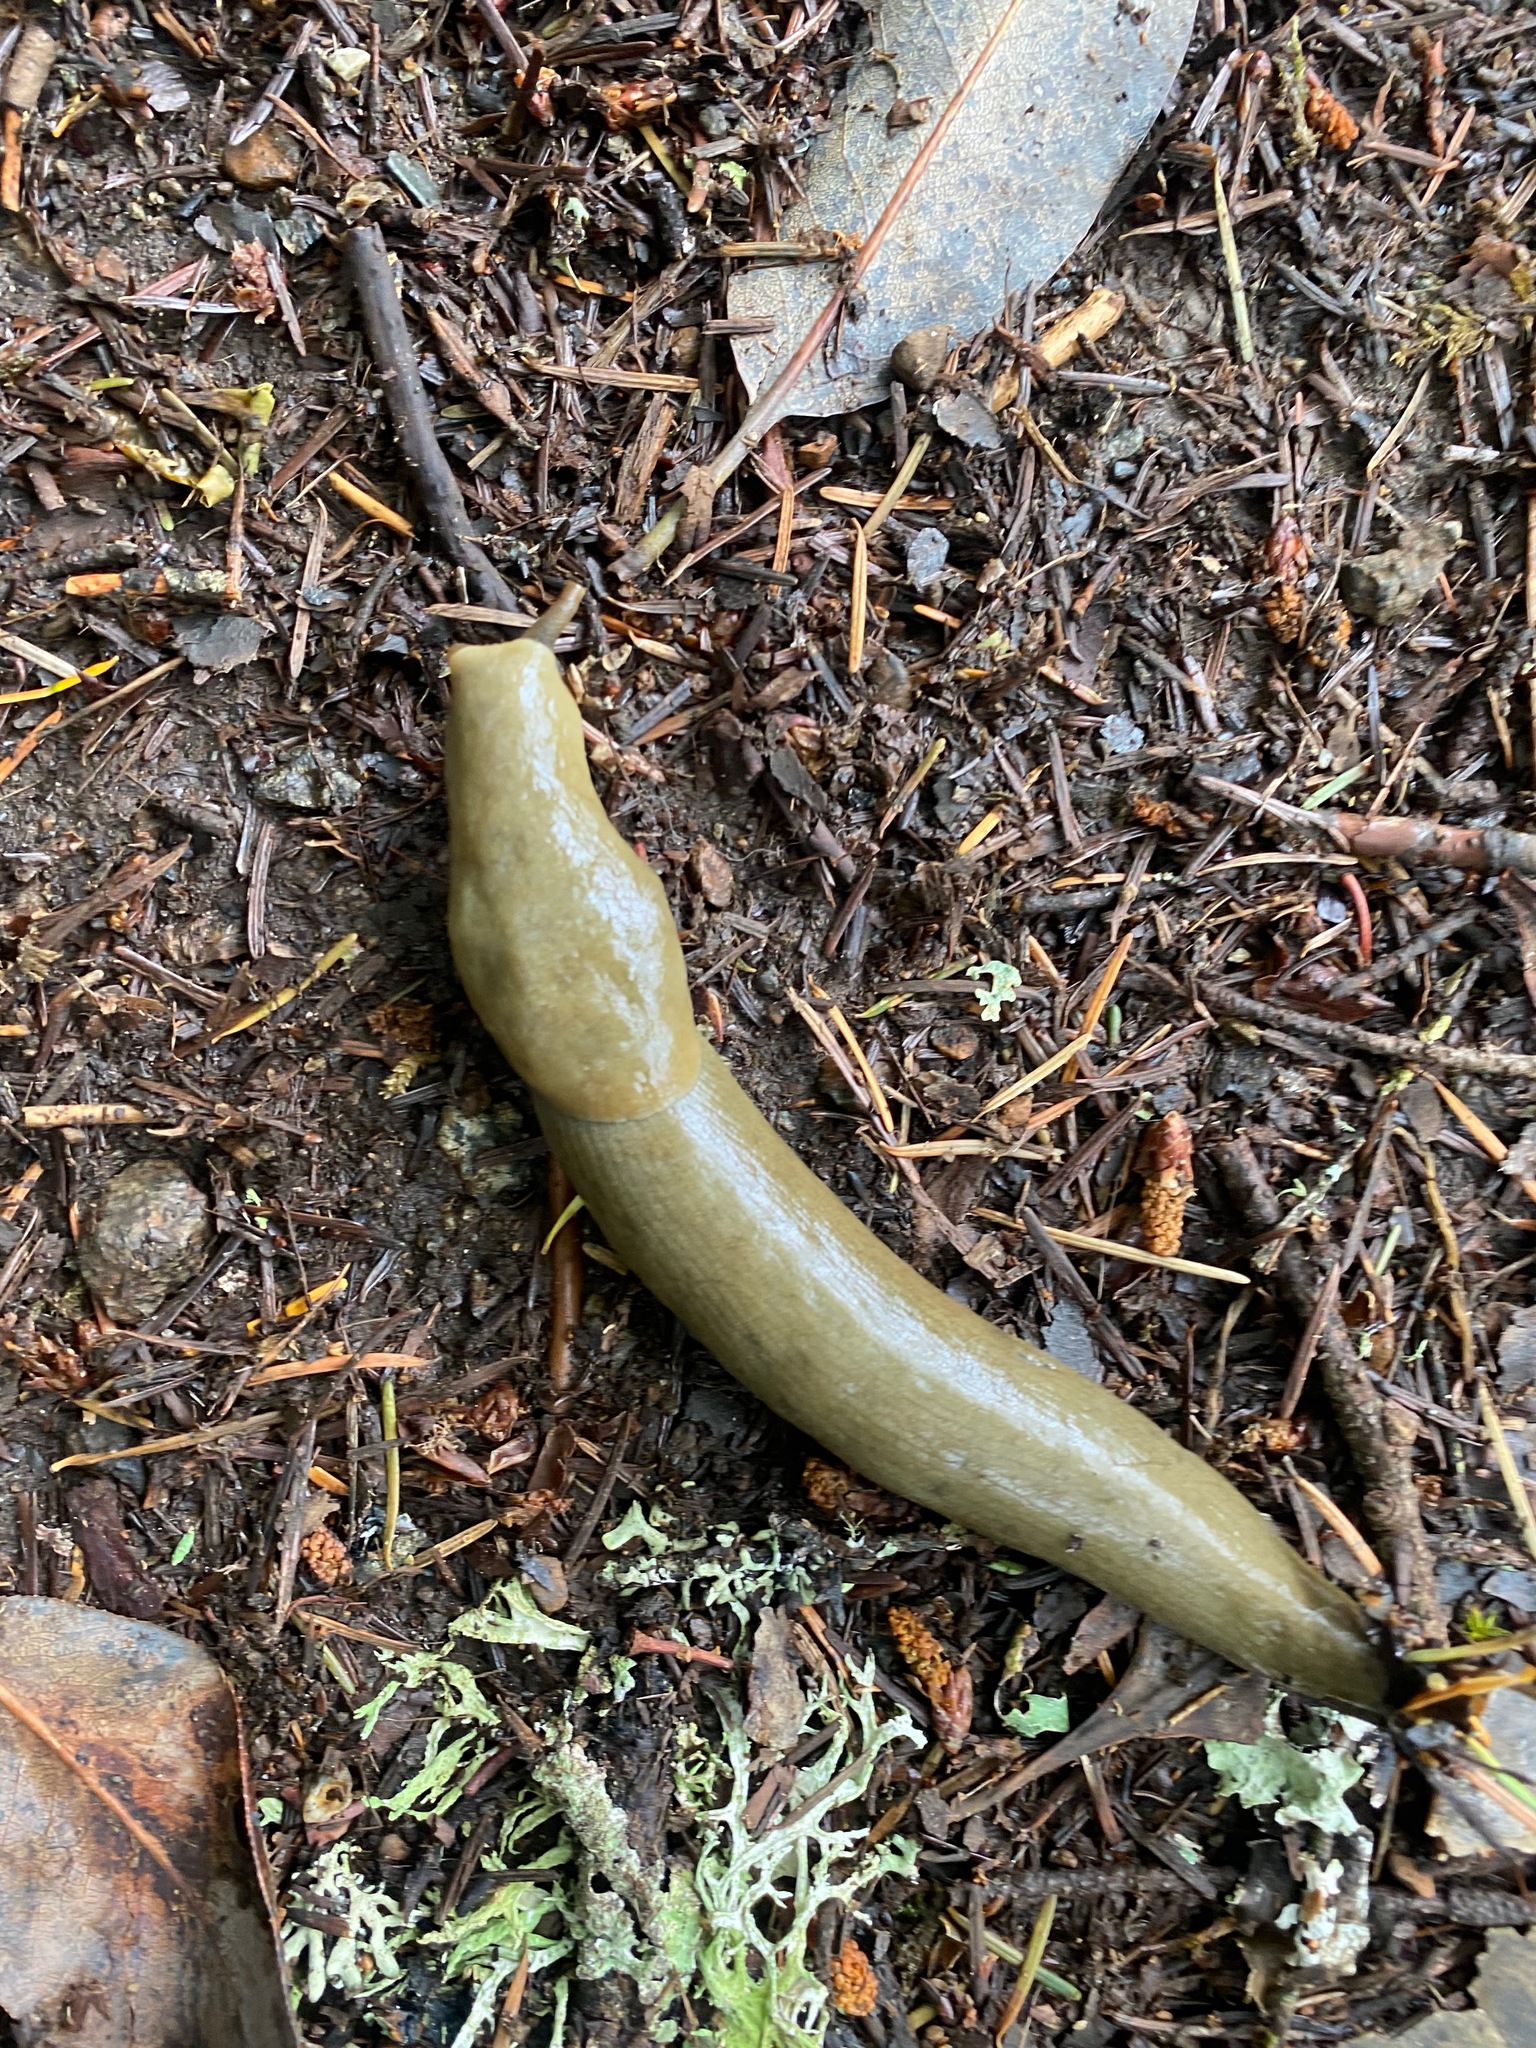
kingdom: Animalia
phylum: Mollusca
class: Gastropoda
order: Stylommatophora
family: Ariolimacidae
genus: Ariolimax
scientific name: Ariolimax columbianus
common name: Pacific banana slug
